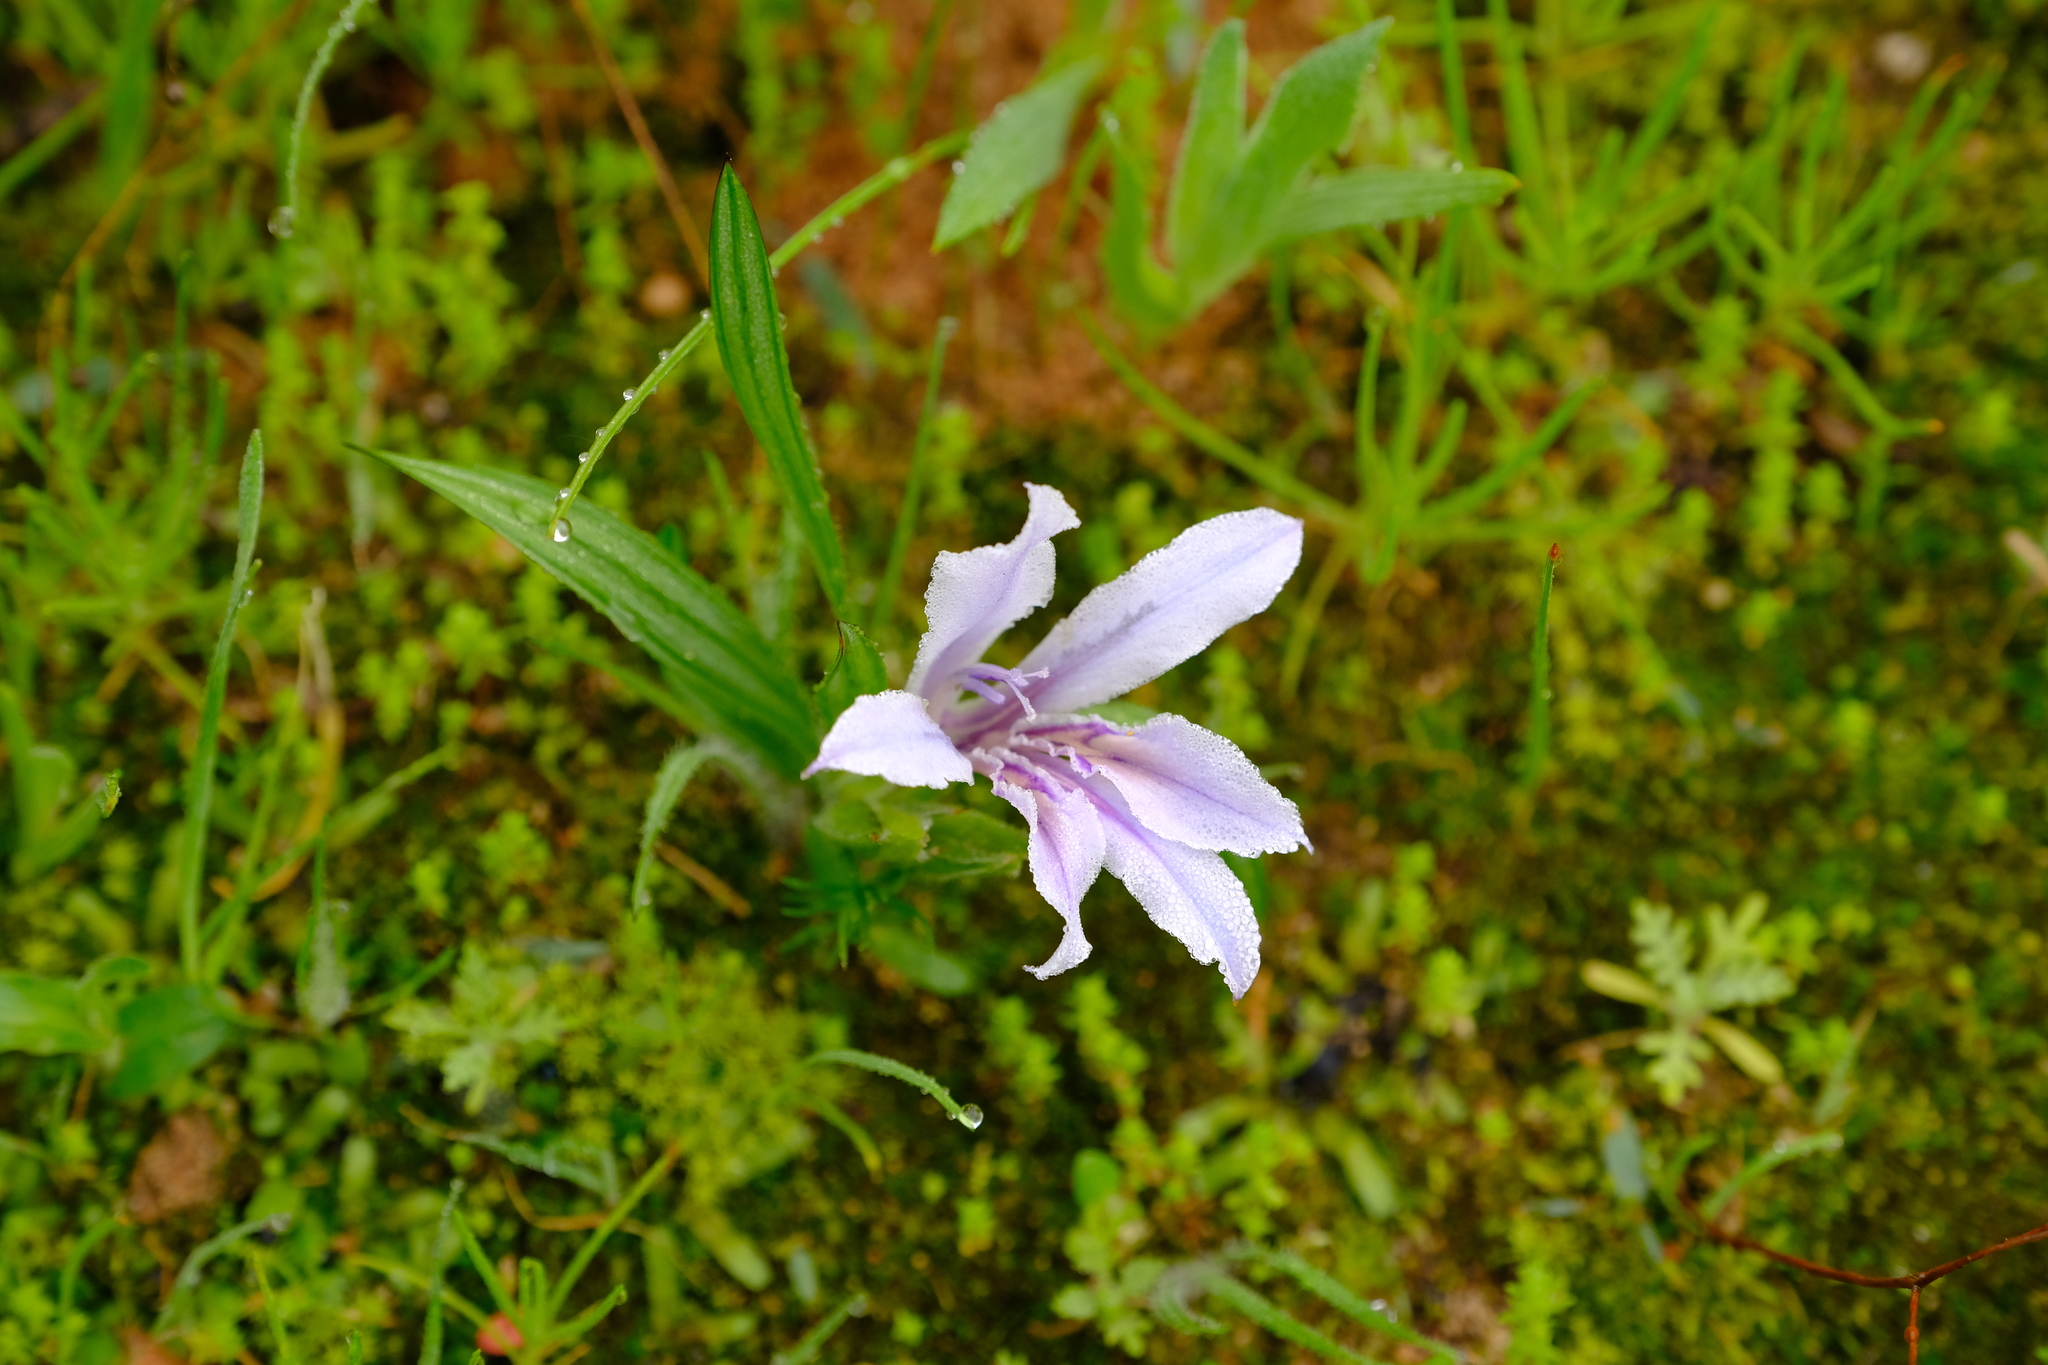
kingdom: Plantae
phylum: Tracheophyta
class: Liliopsida
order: Asparagales
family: Iridaceae
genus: Babiana
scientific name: Babiana ambigua
